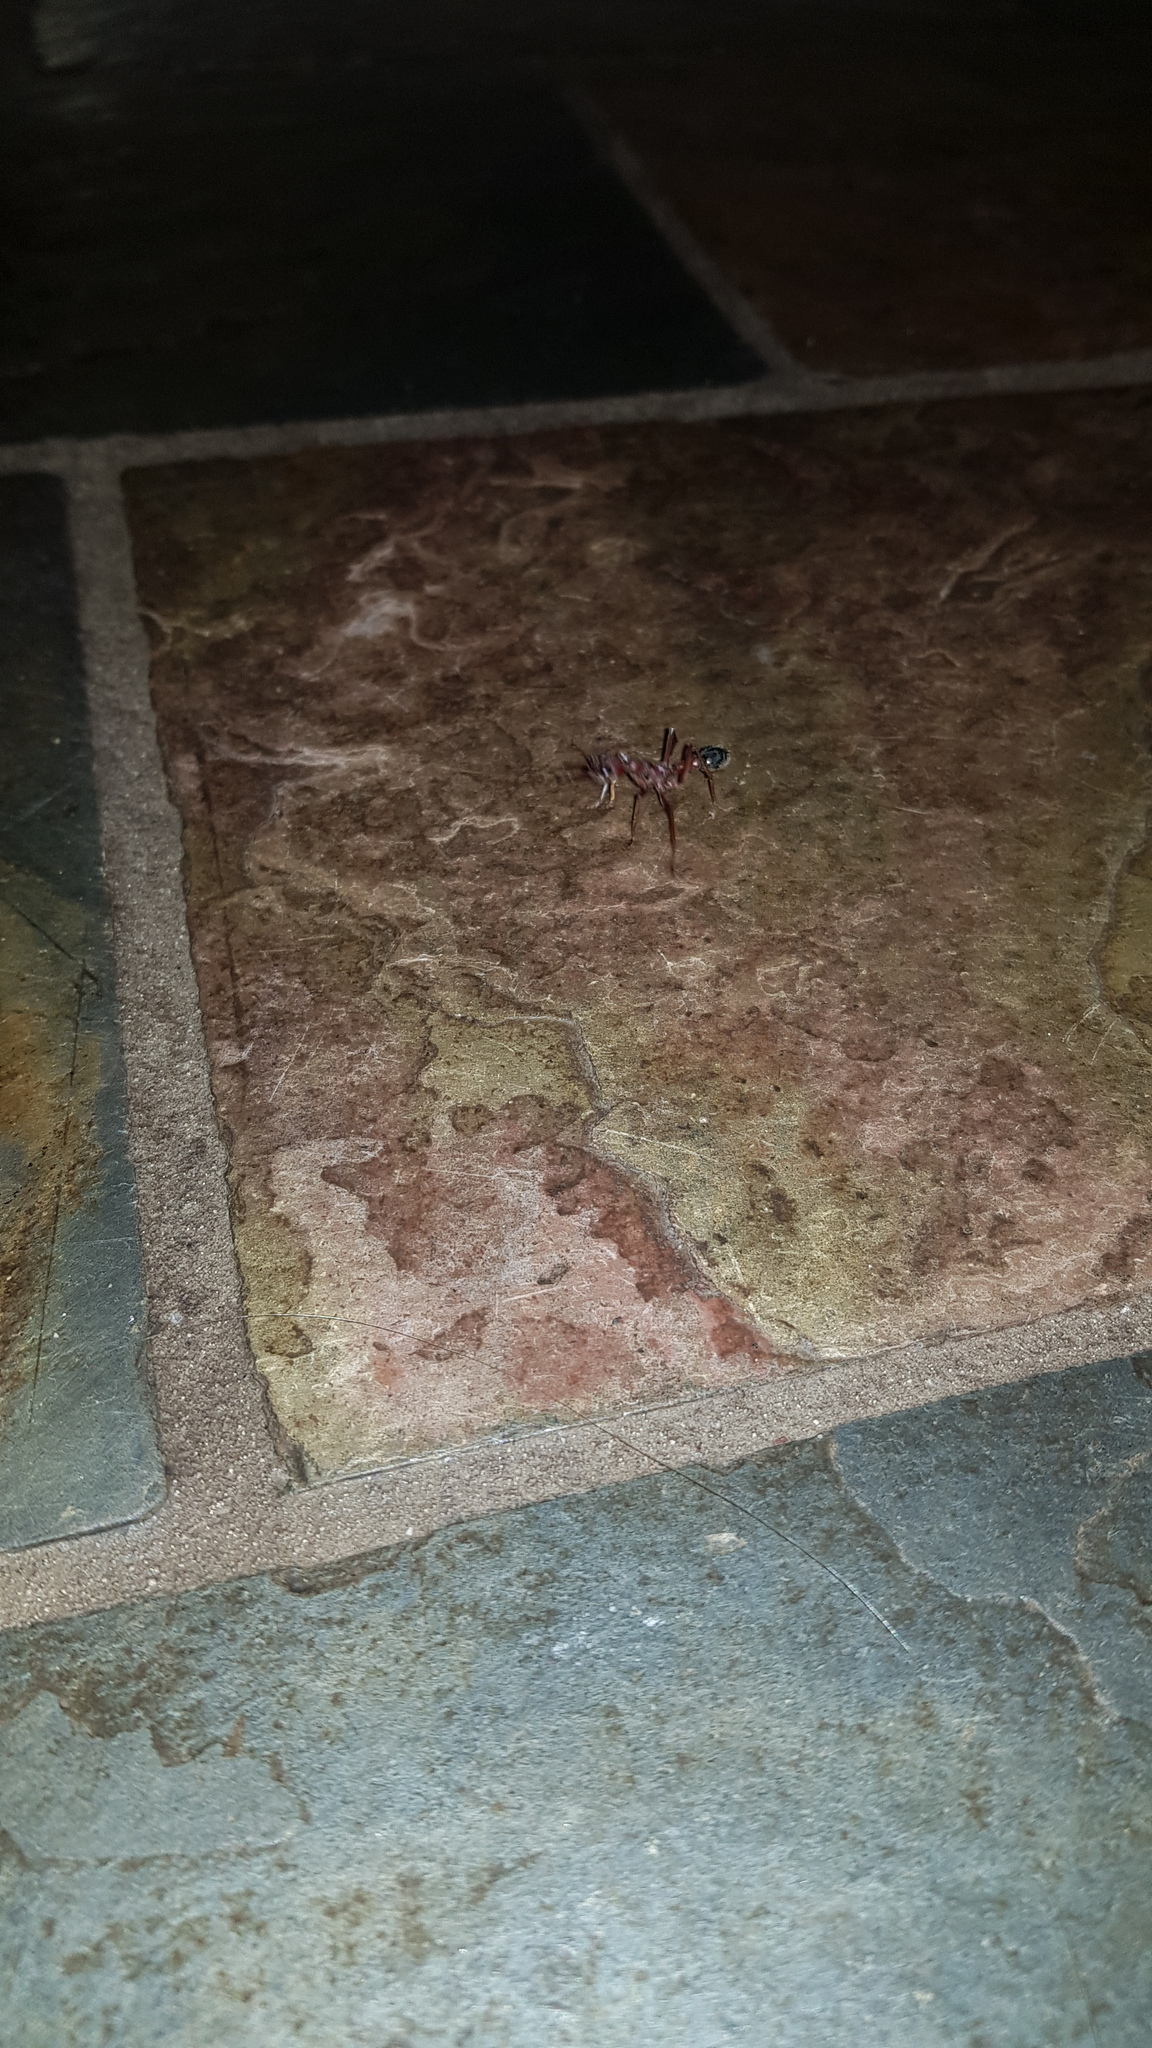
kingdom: Animalia
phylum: Arthropoda
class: Insecta
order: Hymenoptera
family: Formicidae
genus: Myrmecia
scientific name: Myrmecia brevinoda
